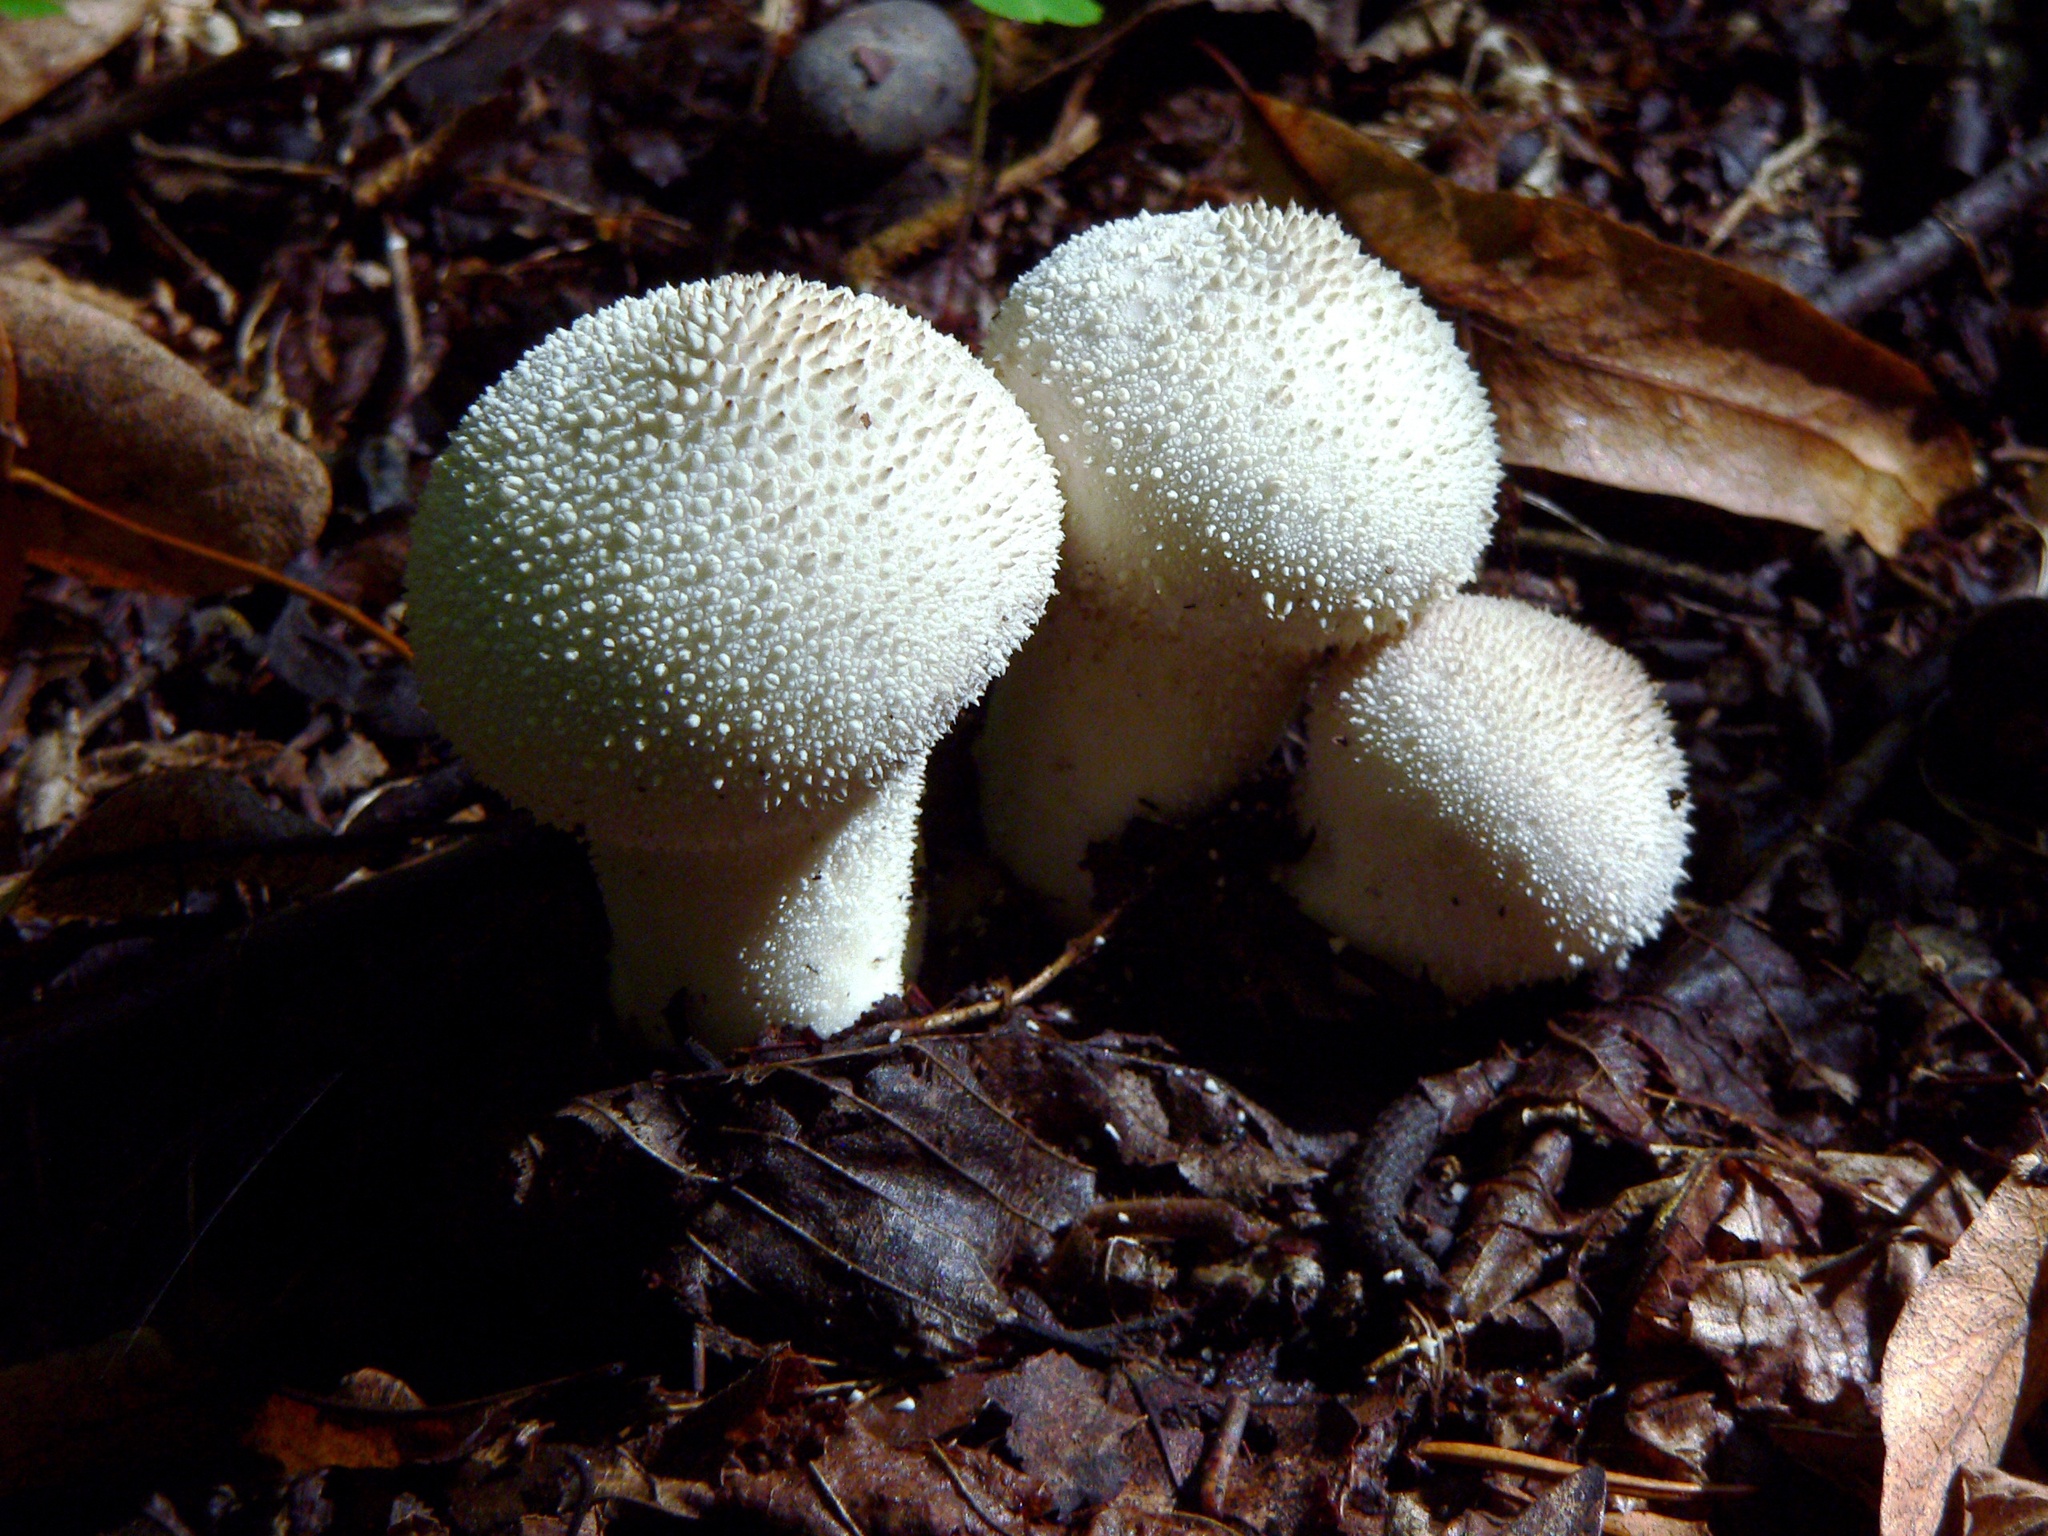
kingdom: Fungi
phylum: Basidiomycota
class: Agaricomycetes
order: Agaricales
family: Lycoperdaceae
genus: Lycoperdon
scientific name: Lycoperdon perlatum
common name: Common puffball
